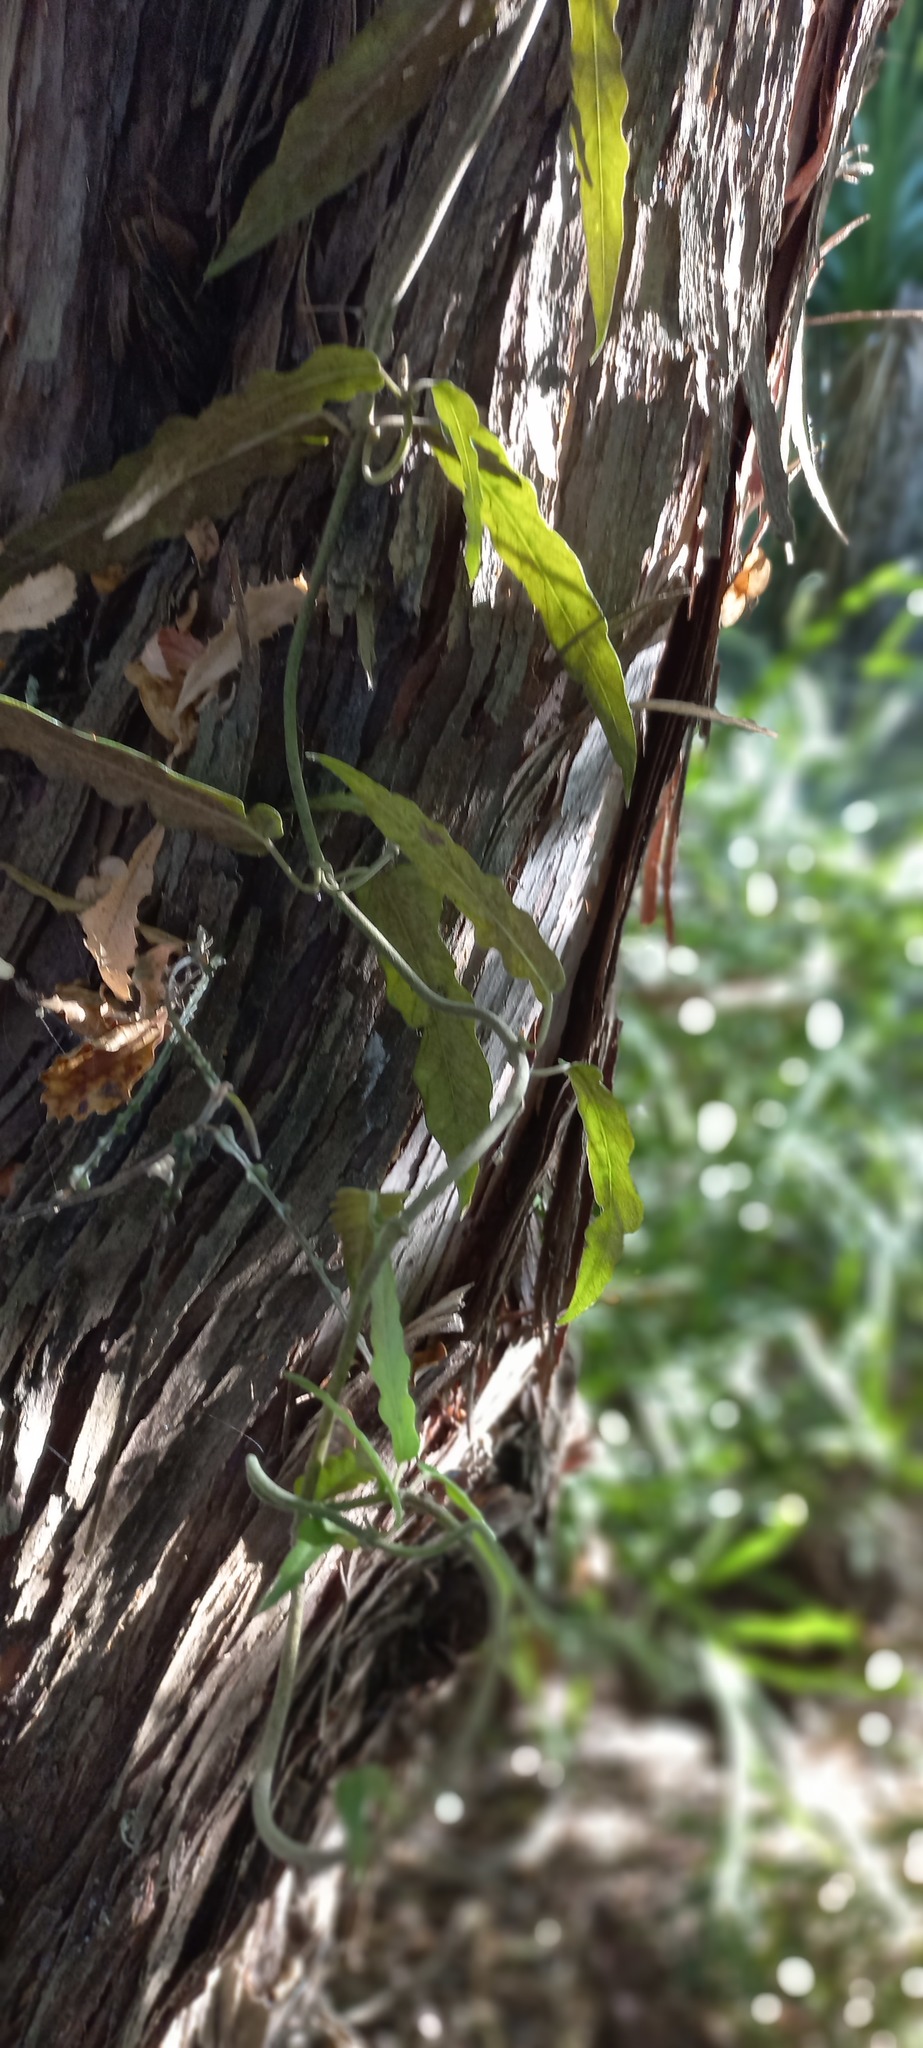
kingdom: Plantae
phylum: Tracheophyta
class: Magnoliopsida
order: Gentianales
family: Apocynaceae
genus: Parsonsia
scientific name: Parsonsia heterophylla
